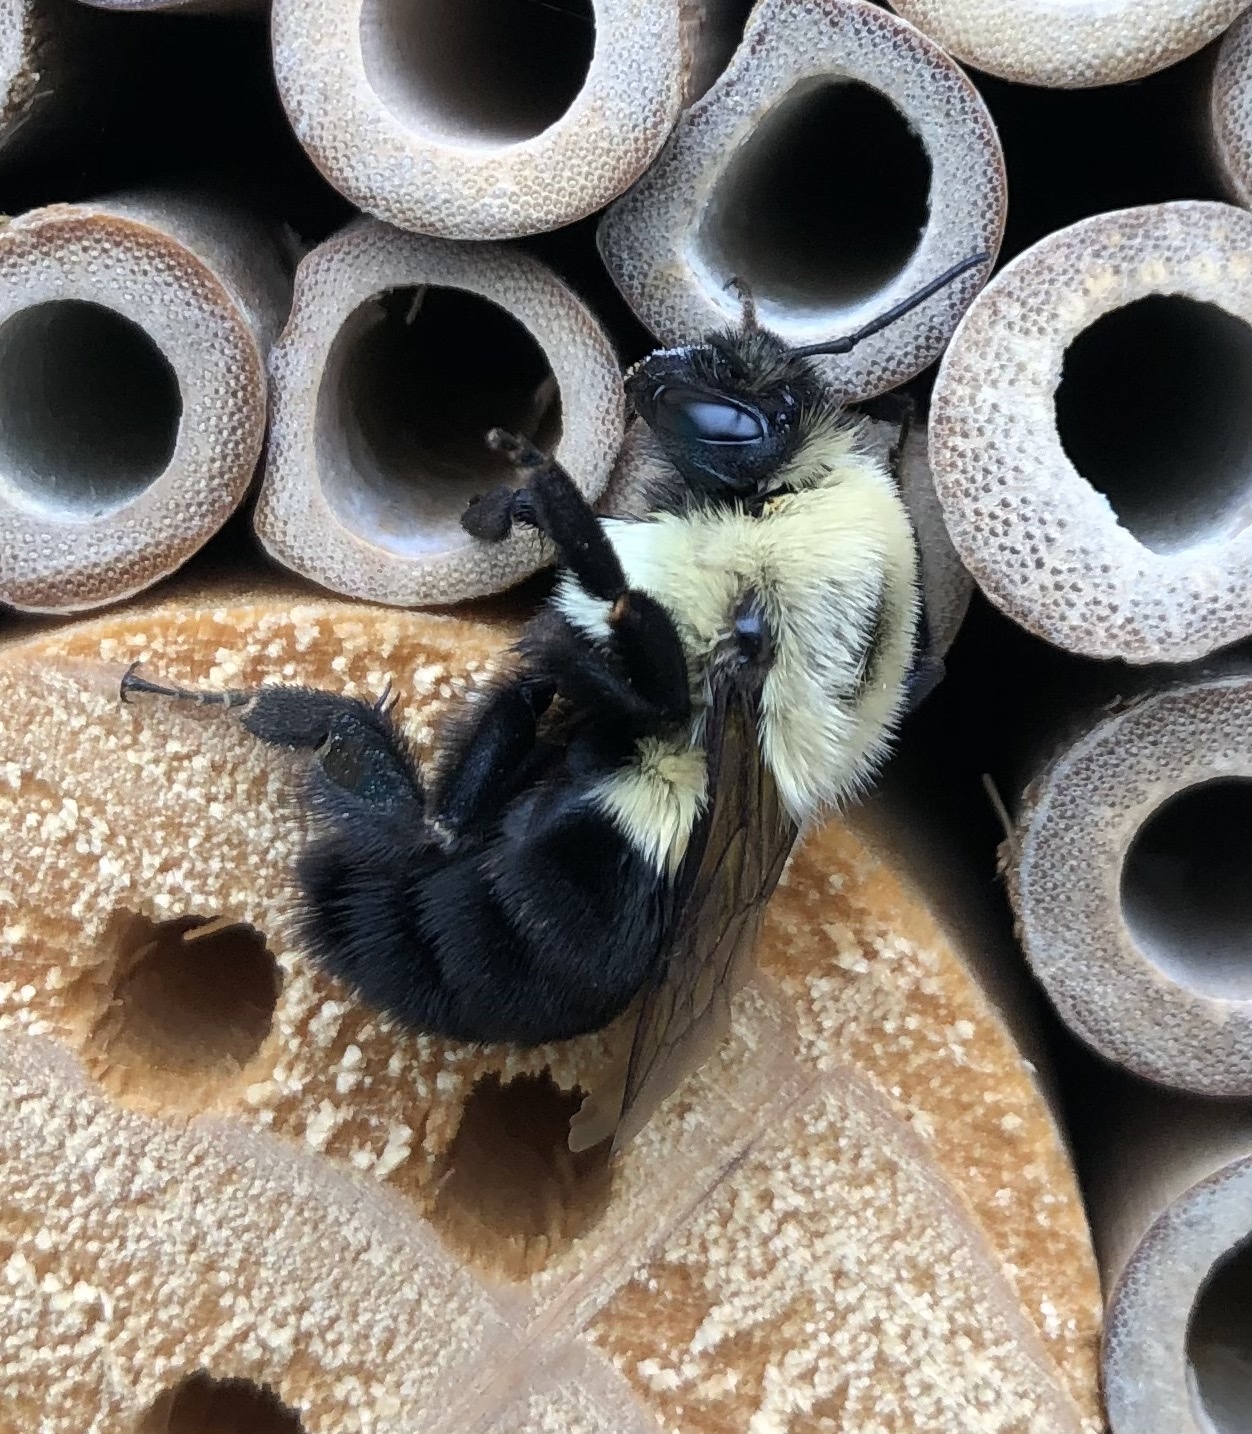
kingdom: Animalia
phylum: Arthropoda
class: Insecta
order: Hymenoptera
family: Apidae
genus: Bombus
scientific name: Bombus impatiens
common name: Common eastern bumble bee
